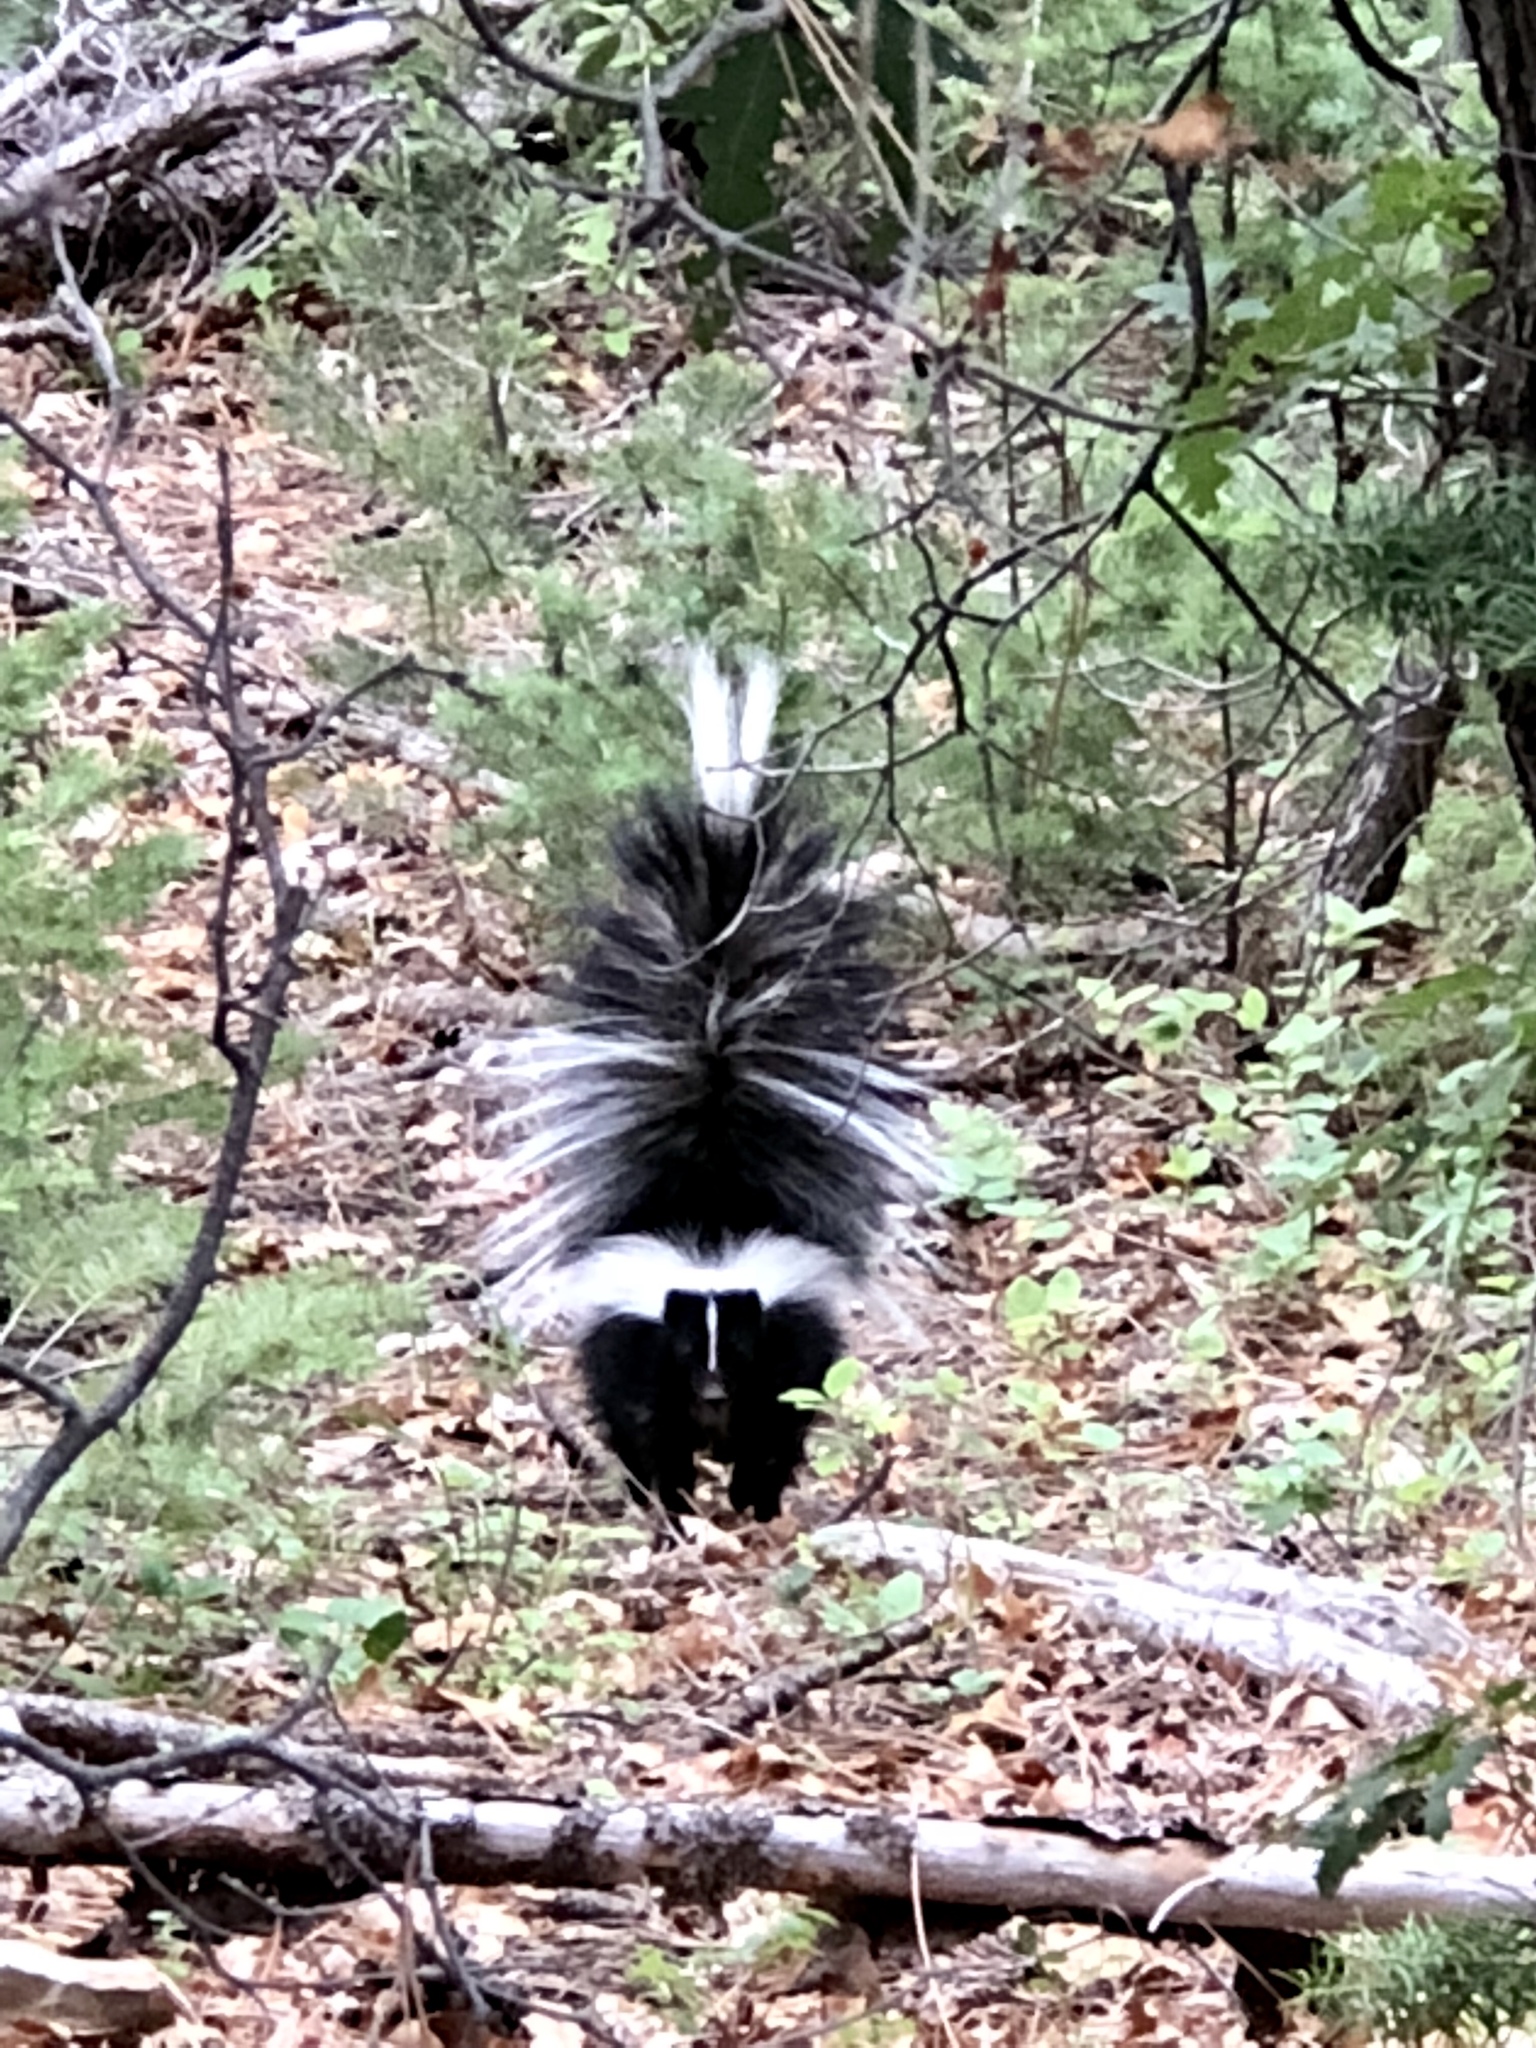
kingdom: Animalia
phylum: Chordata
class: Mammalia
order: Carnivora
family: Mephitidae
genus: Mephitis
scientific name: Mephitis mephitis
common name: Striped skunk
